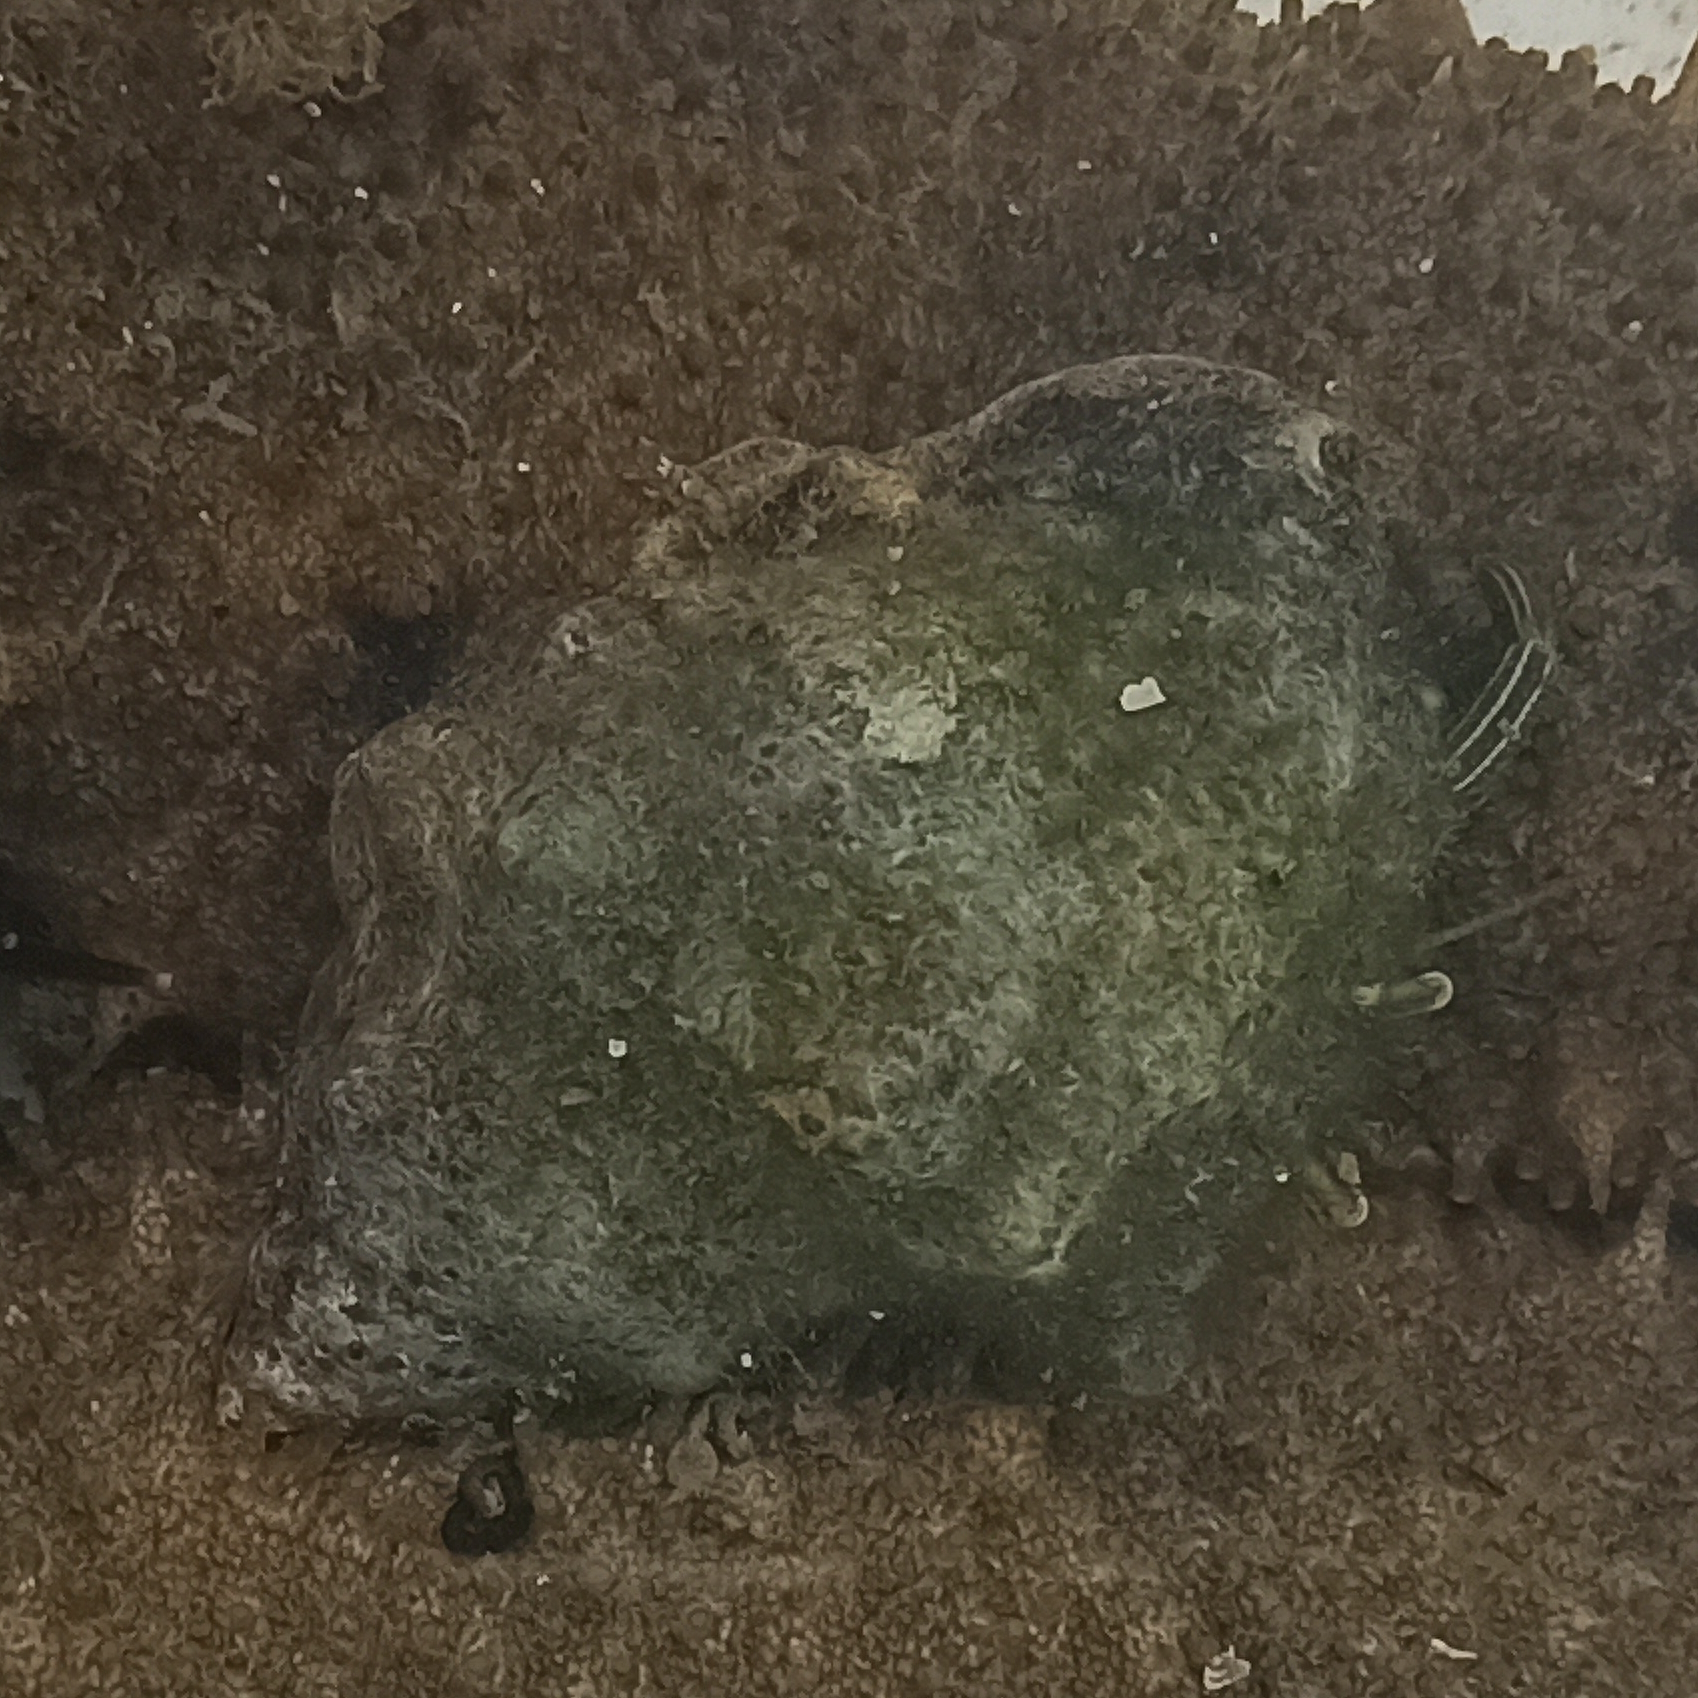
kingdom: Animalia
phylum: Mollusca
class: Gastropoda
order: Neogastropoda
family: Muricidae
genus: Stramonita
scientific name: Stramonita brasiliensis
